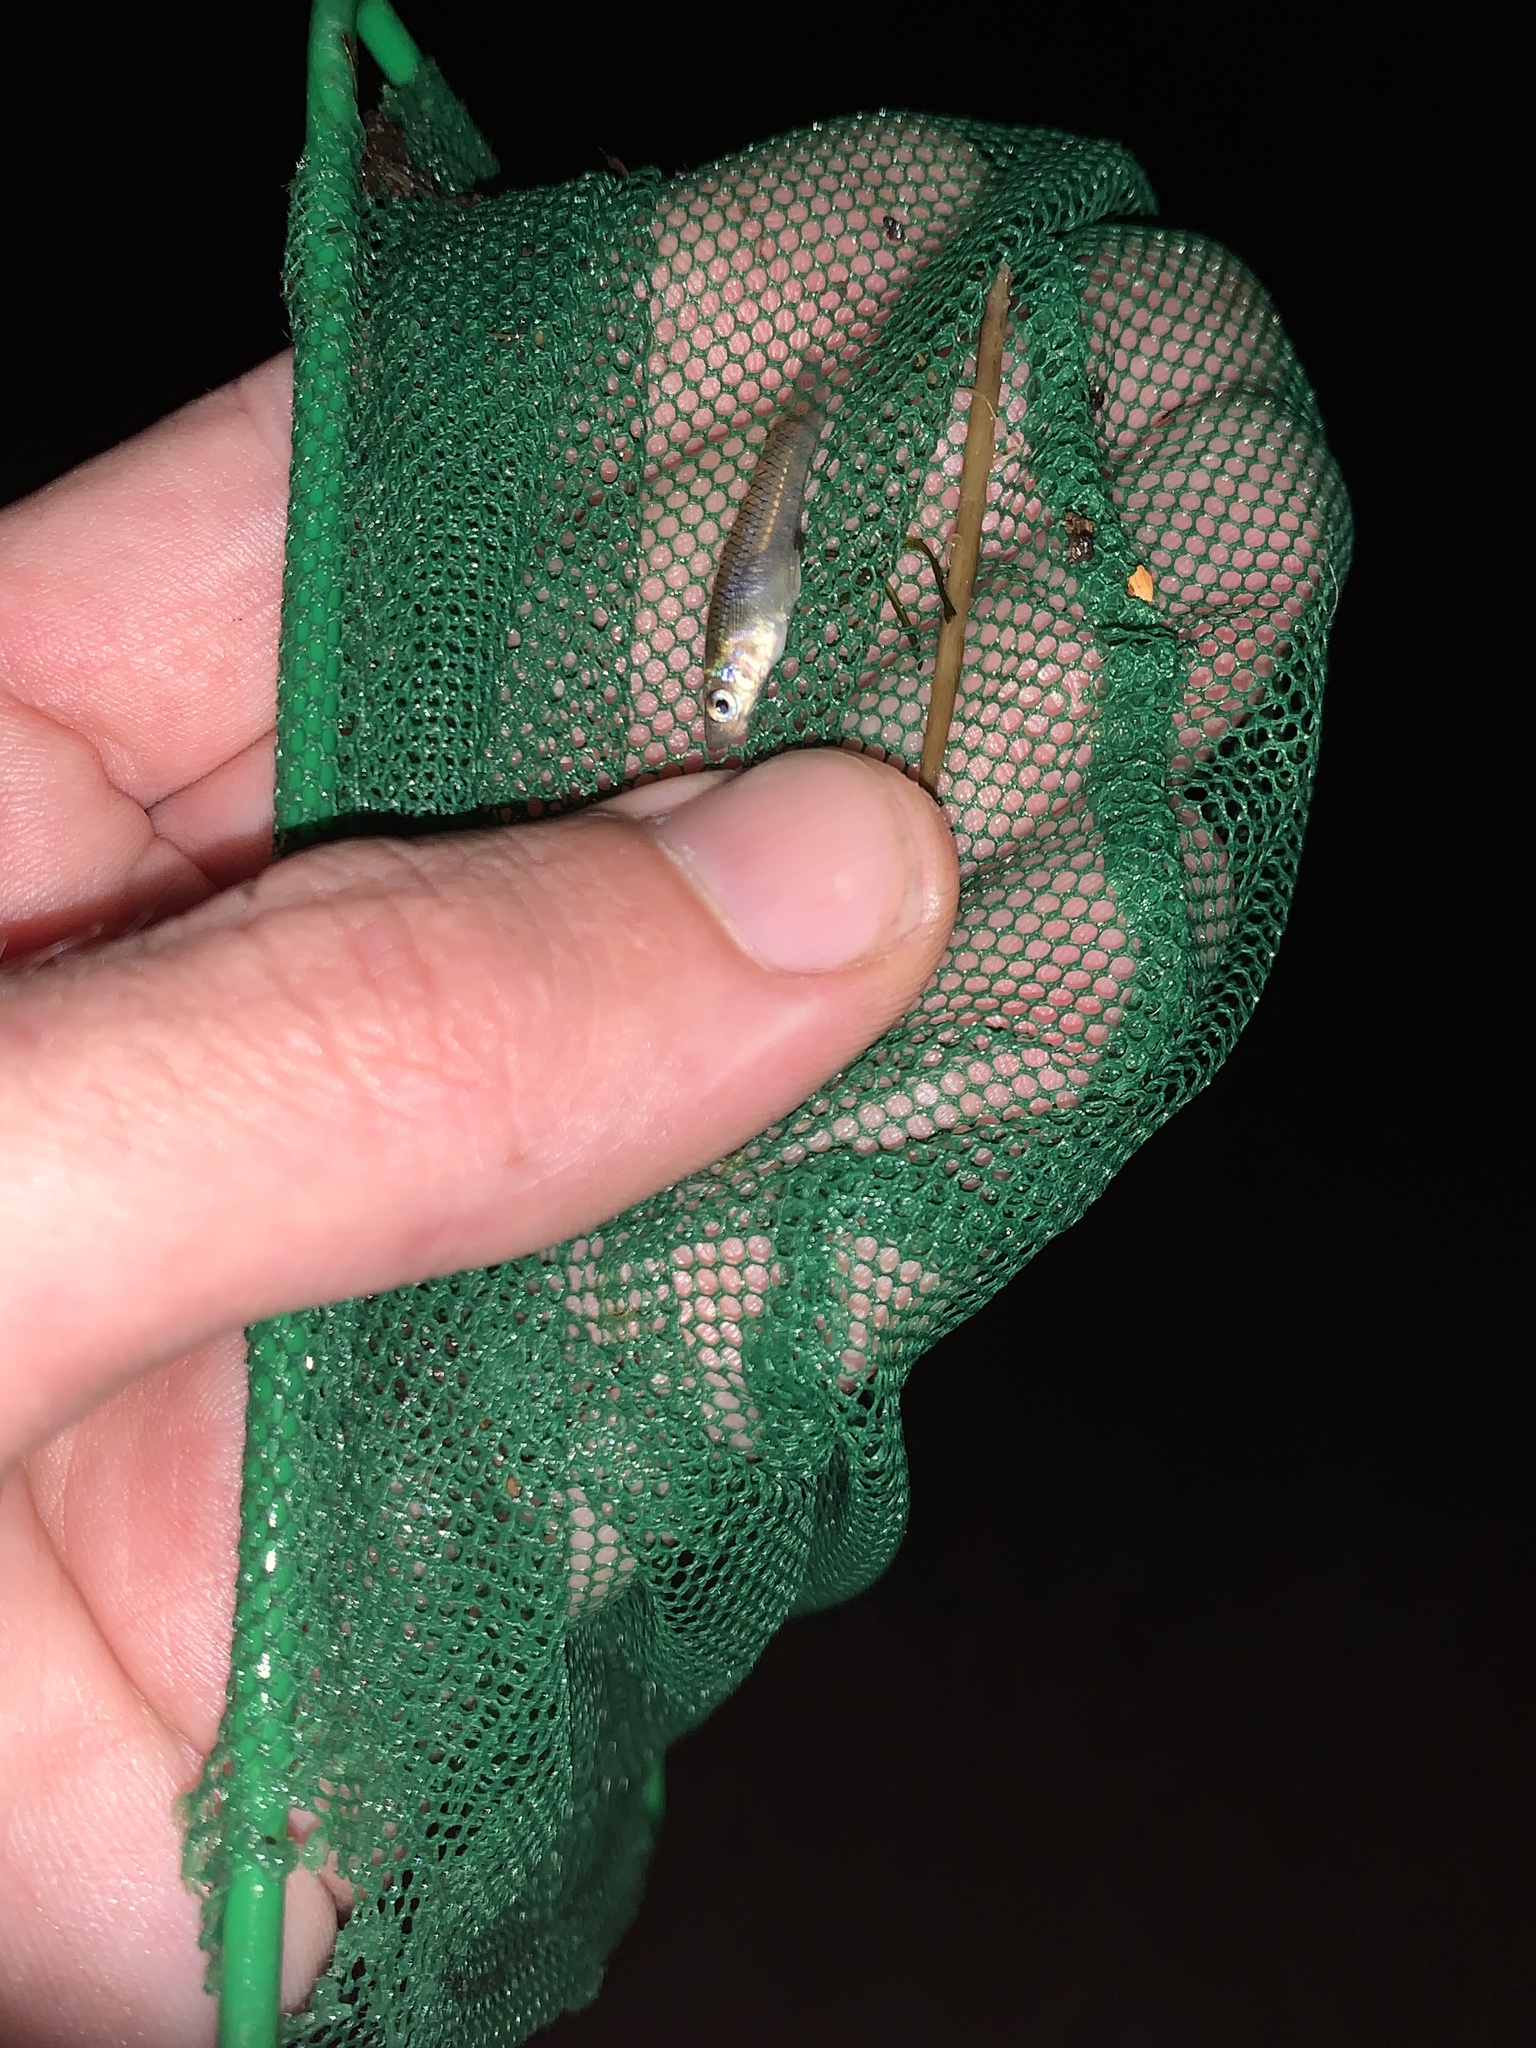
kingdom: Animalia
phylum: Chordata
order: Cyprinodontiformes
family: Poeciliidae
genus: Gambusia
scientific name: Gambusia affinis
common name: Mosquitofish
